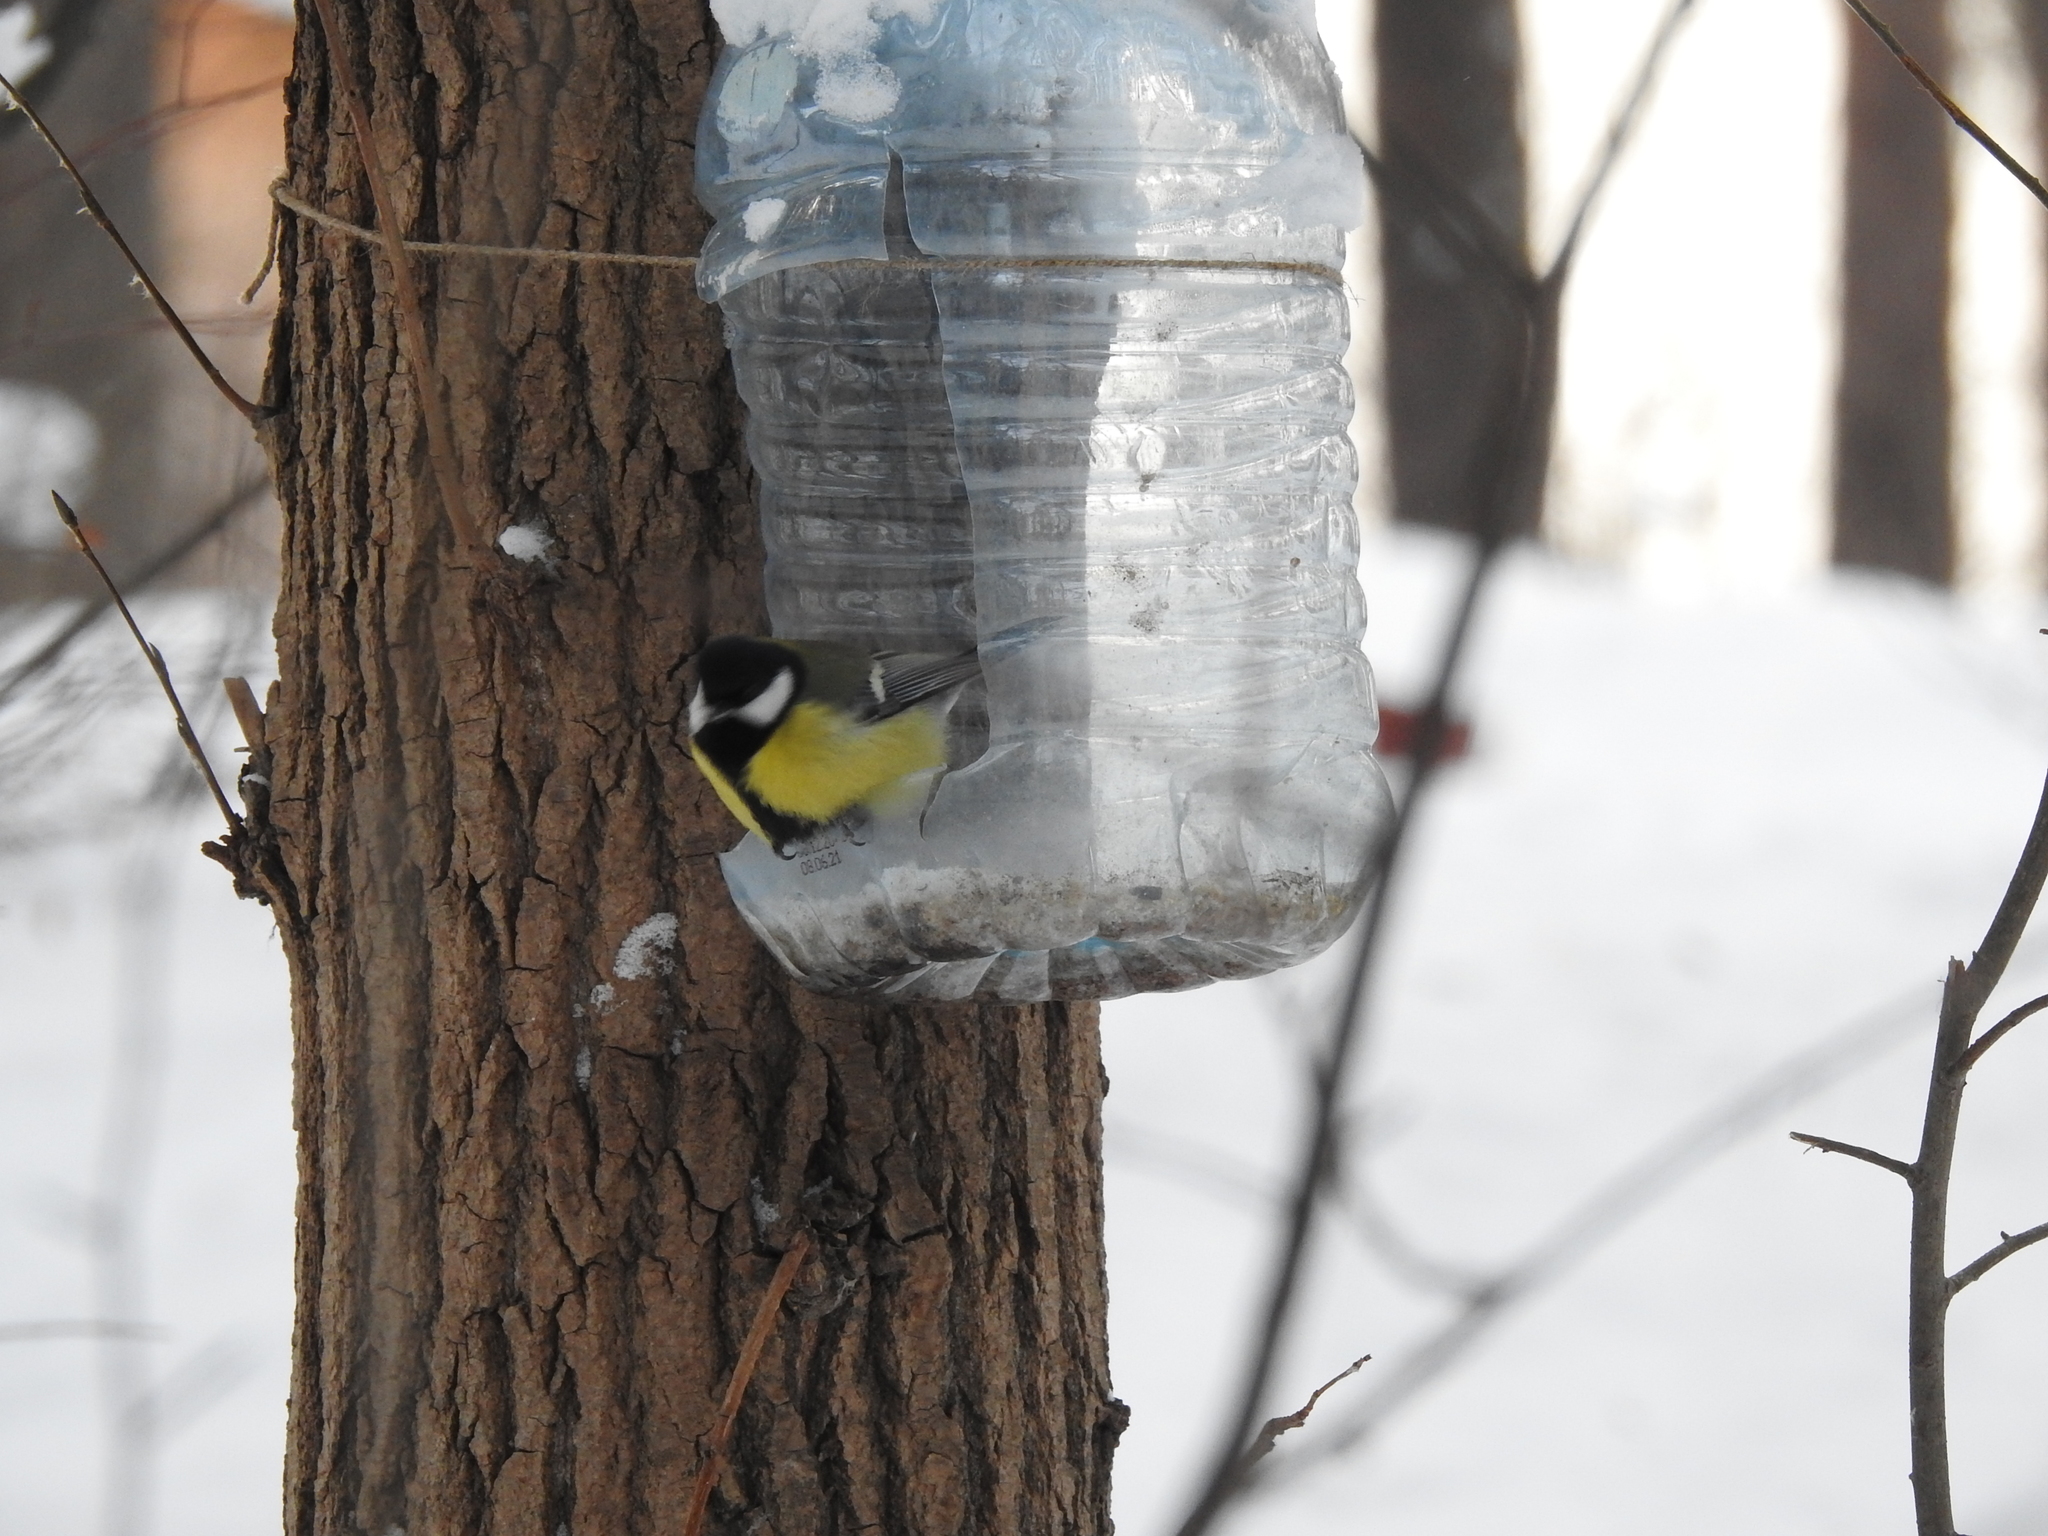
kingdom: Animalia
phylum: Chordata
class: Aves
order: Passeriformes
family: Paridae
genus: Parus
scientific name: Parus major
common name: Great tit
